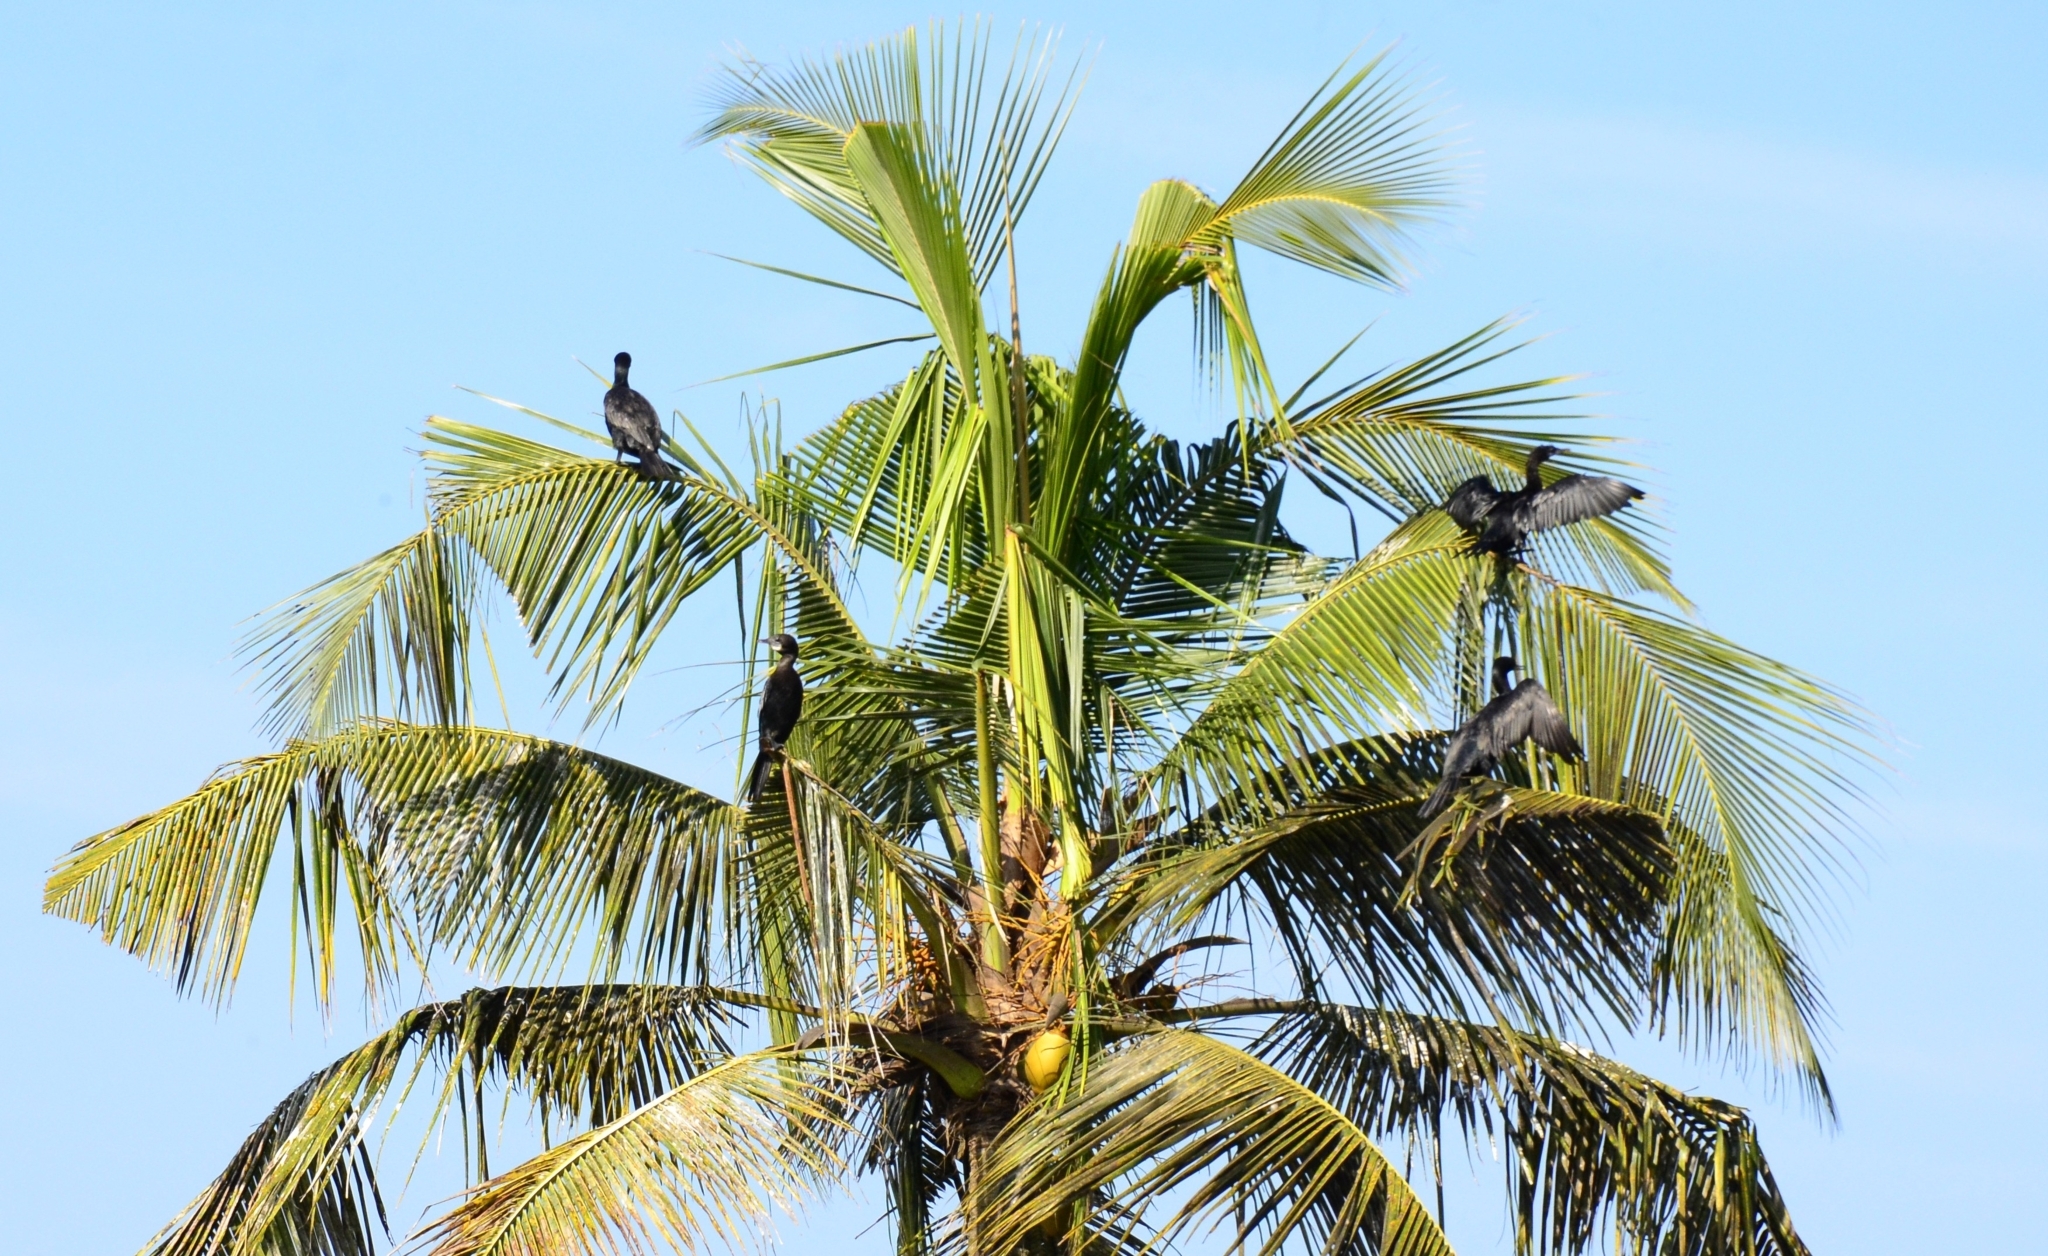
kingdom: Animalia
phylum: Chordata
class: Aves
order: Suliformes
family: Phalacrocoracidae
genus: Microcarbo
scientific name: Microcarbo niger
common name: Little cormorant
